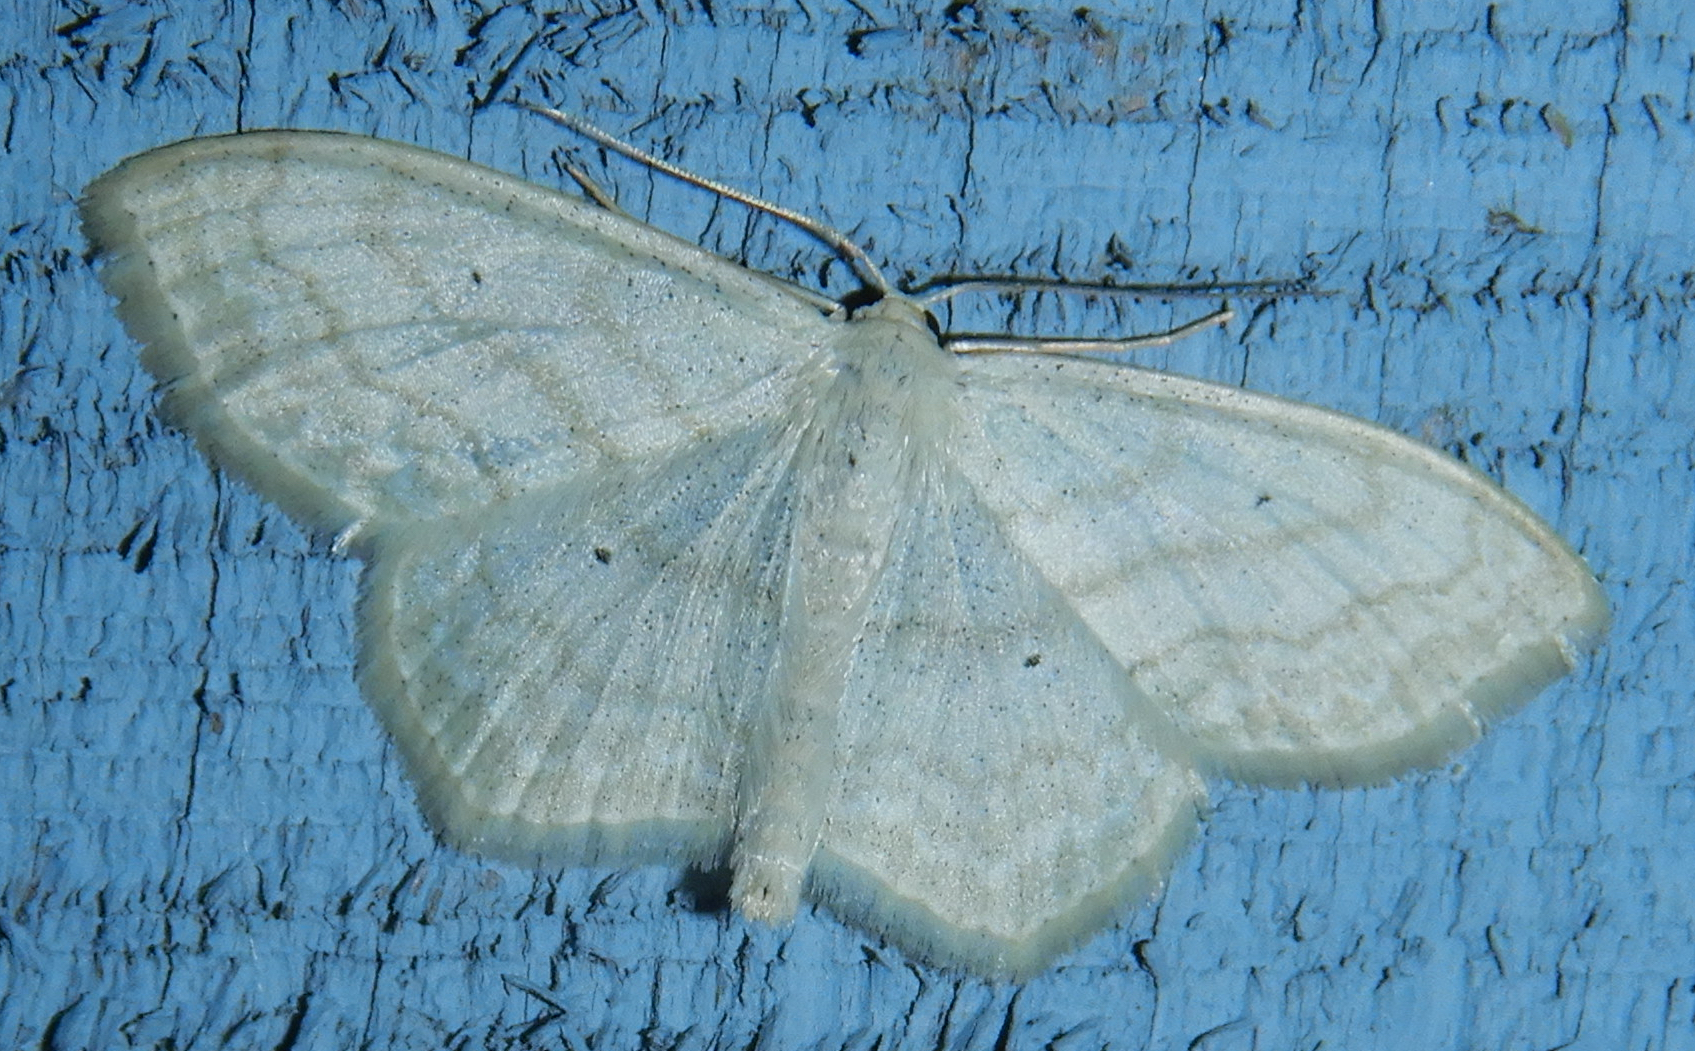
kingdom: Animalia
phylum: Arthropoda
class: Insecta
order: Lepidoptera
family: Geometridae
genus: Scopula
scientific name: Scopula limboundata
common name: Large lace border
